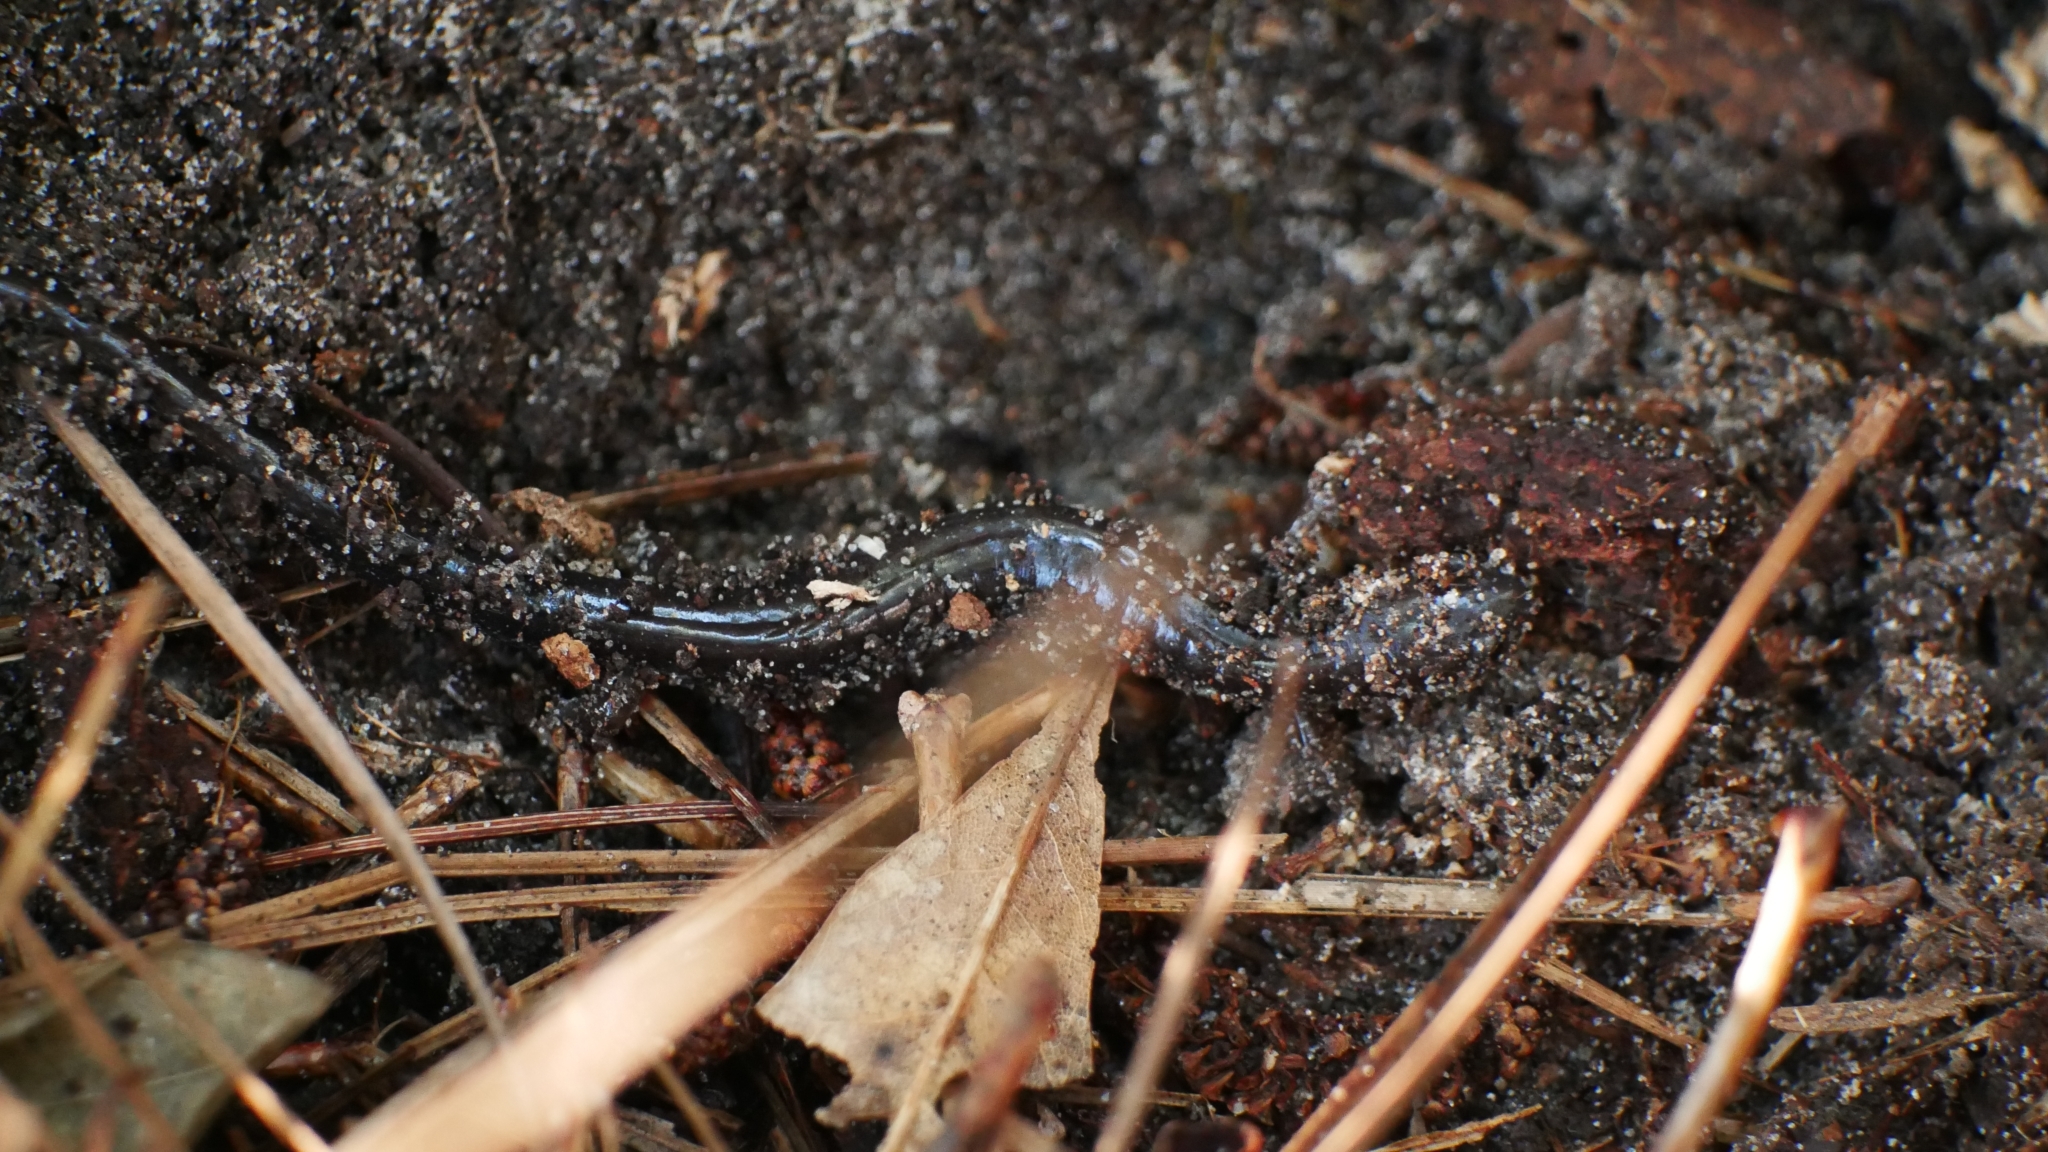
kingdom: Animalia
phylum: Chordata
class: Amphibia
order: Caudata
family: Plethodontidae
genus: Plethodon
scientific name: Plethodon cinereus
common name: Redback salamander
